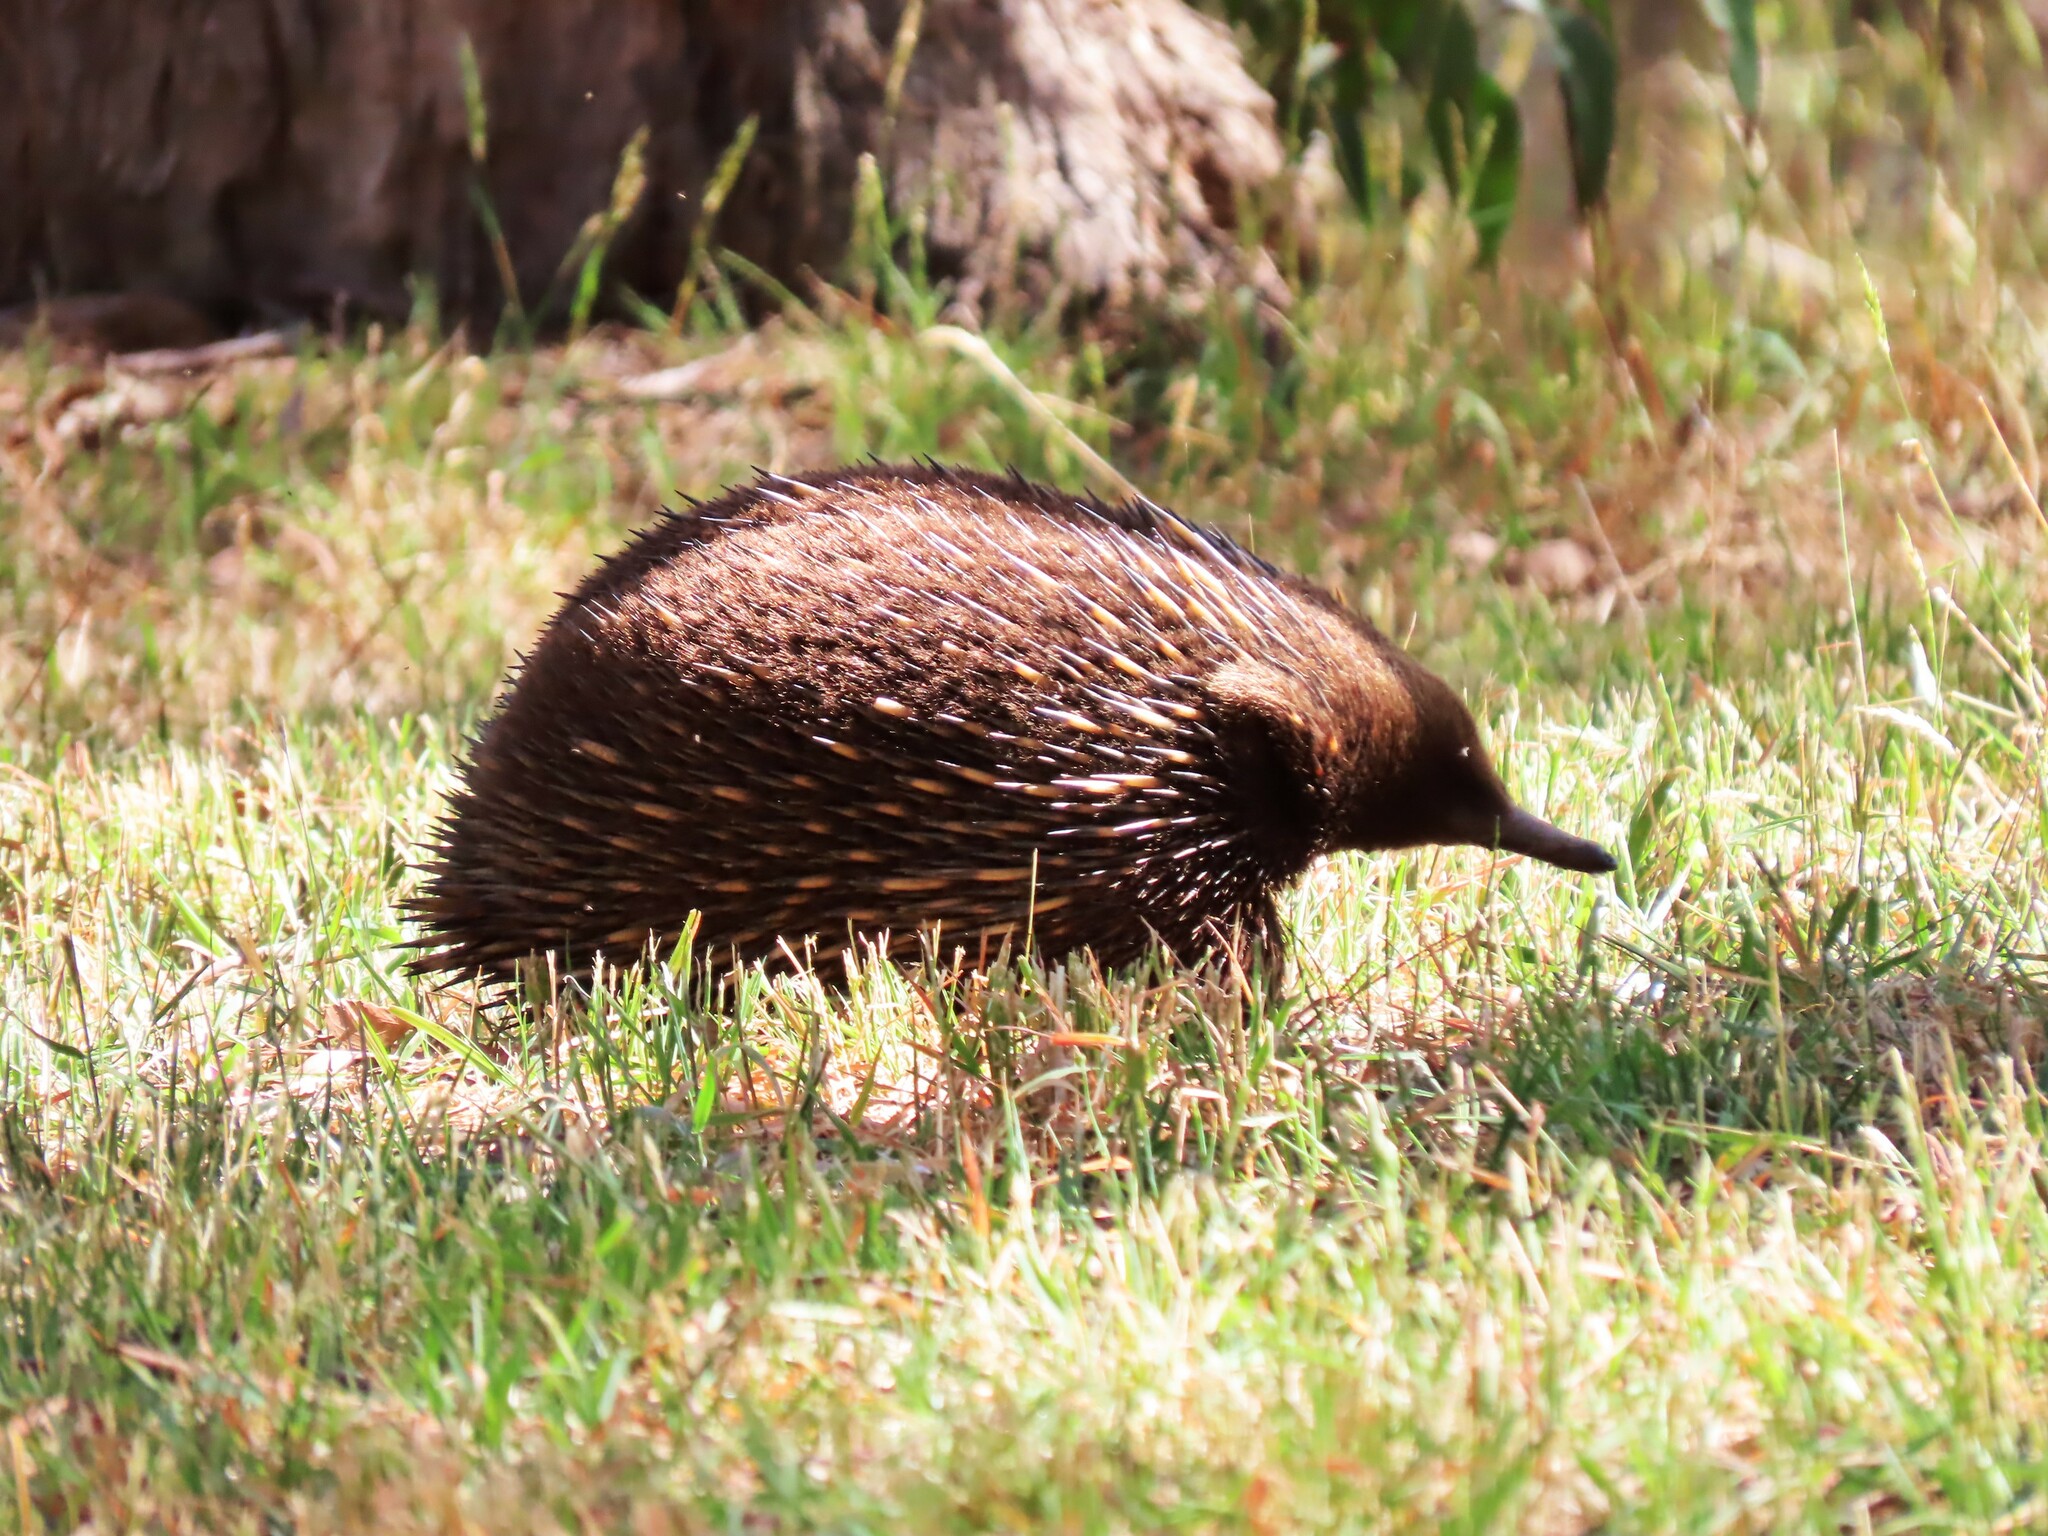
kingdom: Animalia
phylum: Chordata
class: Mammalia
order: Monotremata
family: Tachyglossidae
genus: Tachyglossus
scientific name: Tachyglossus aculeatus
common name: Short-beaked echidna
